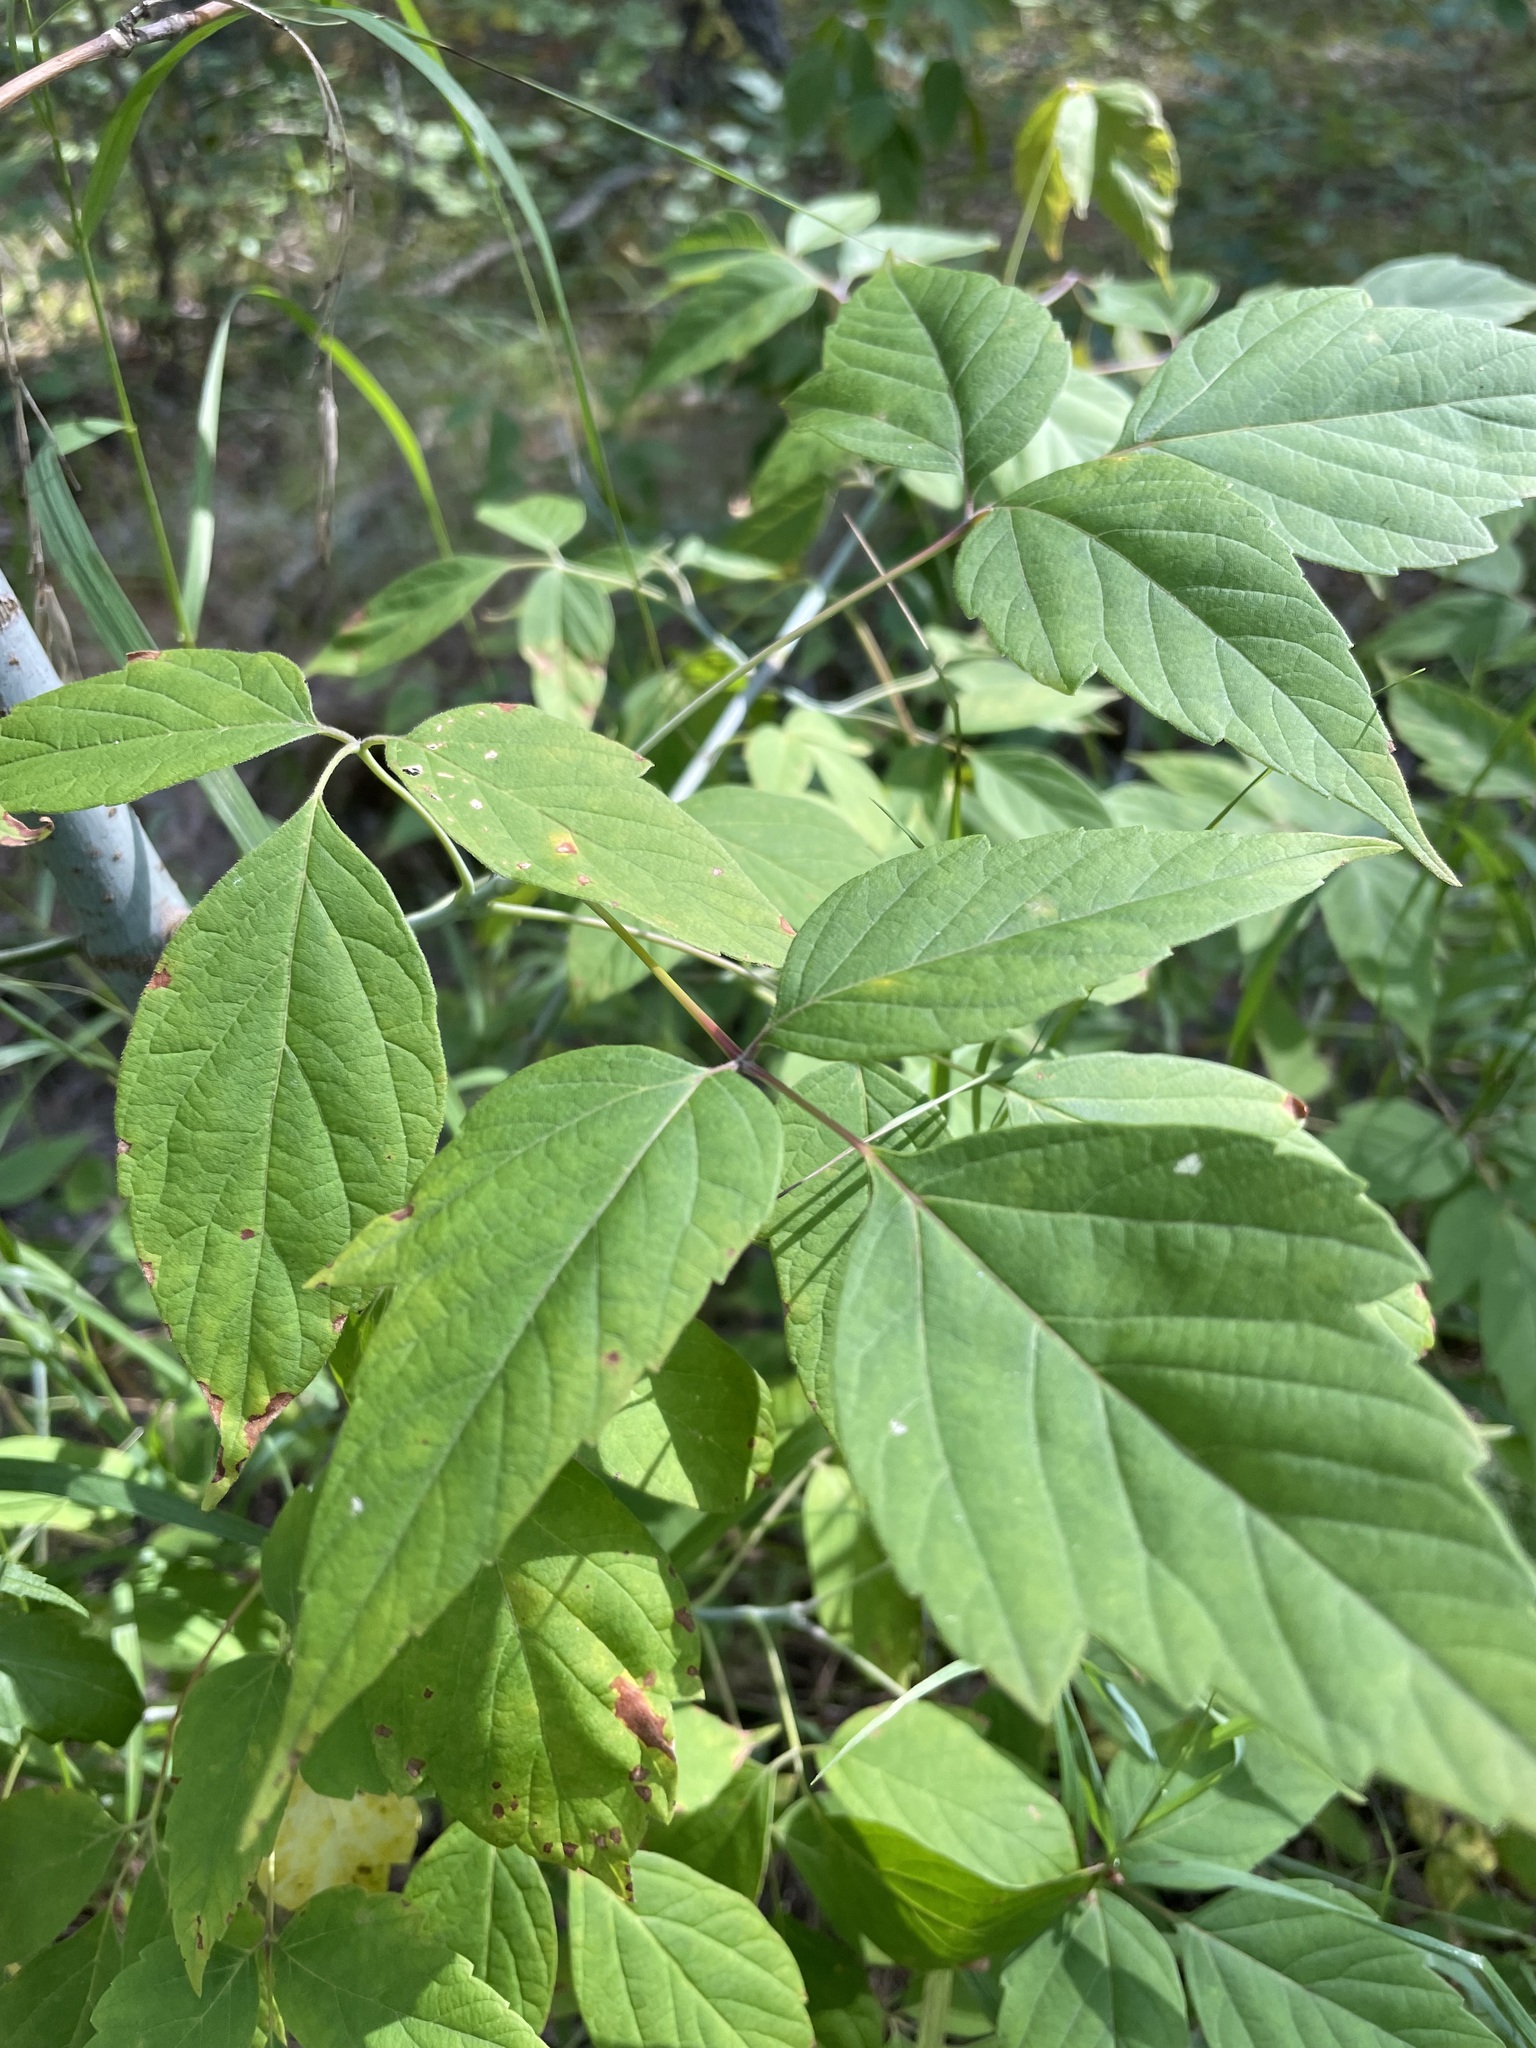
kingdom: Plantae
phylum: Tracheophyta
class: Magnoliopsida
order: Sapindales
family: Sapindaceae
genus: Acer
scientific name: Acer negundo
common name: Ashleaf maple
